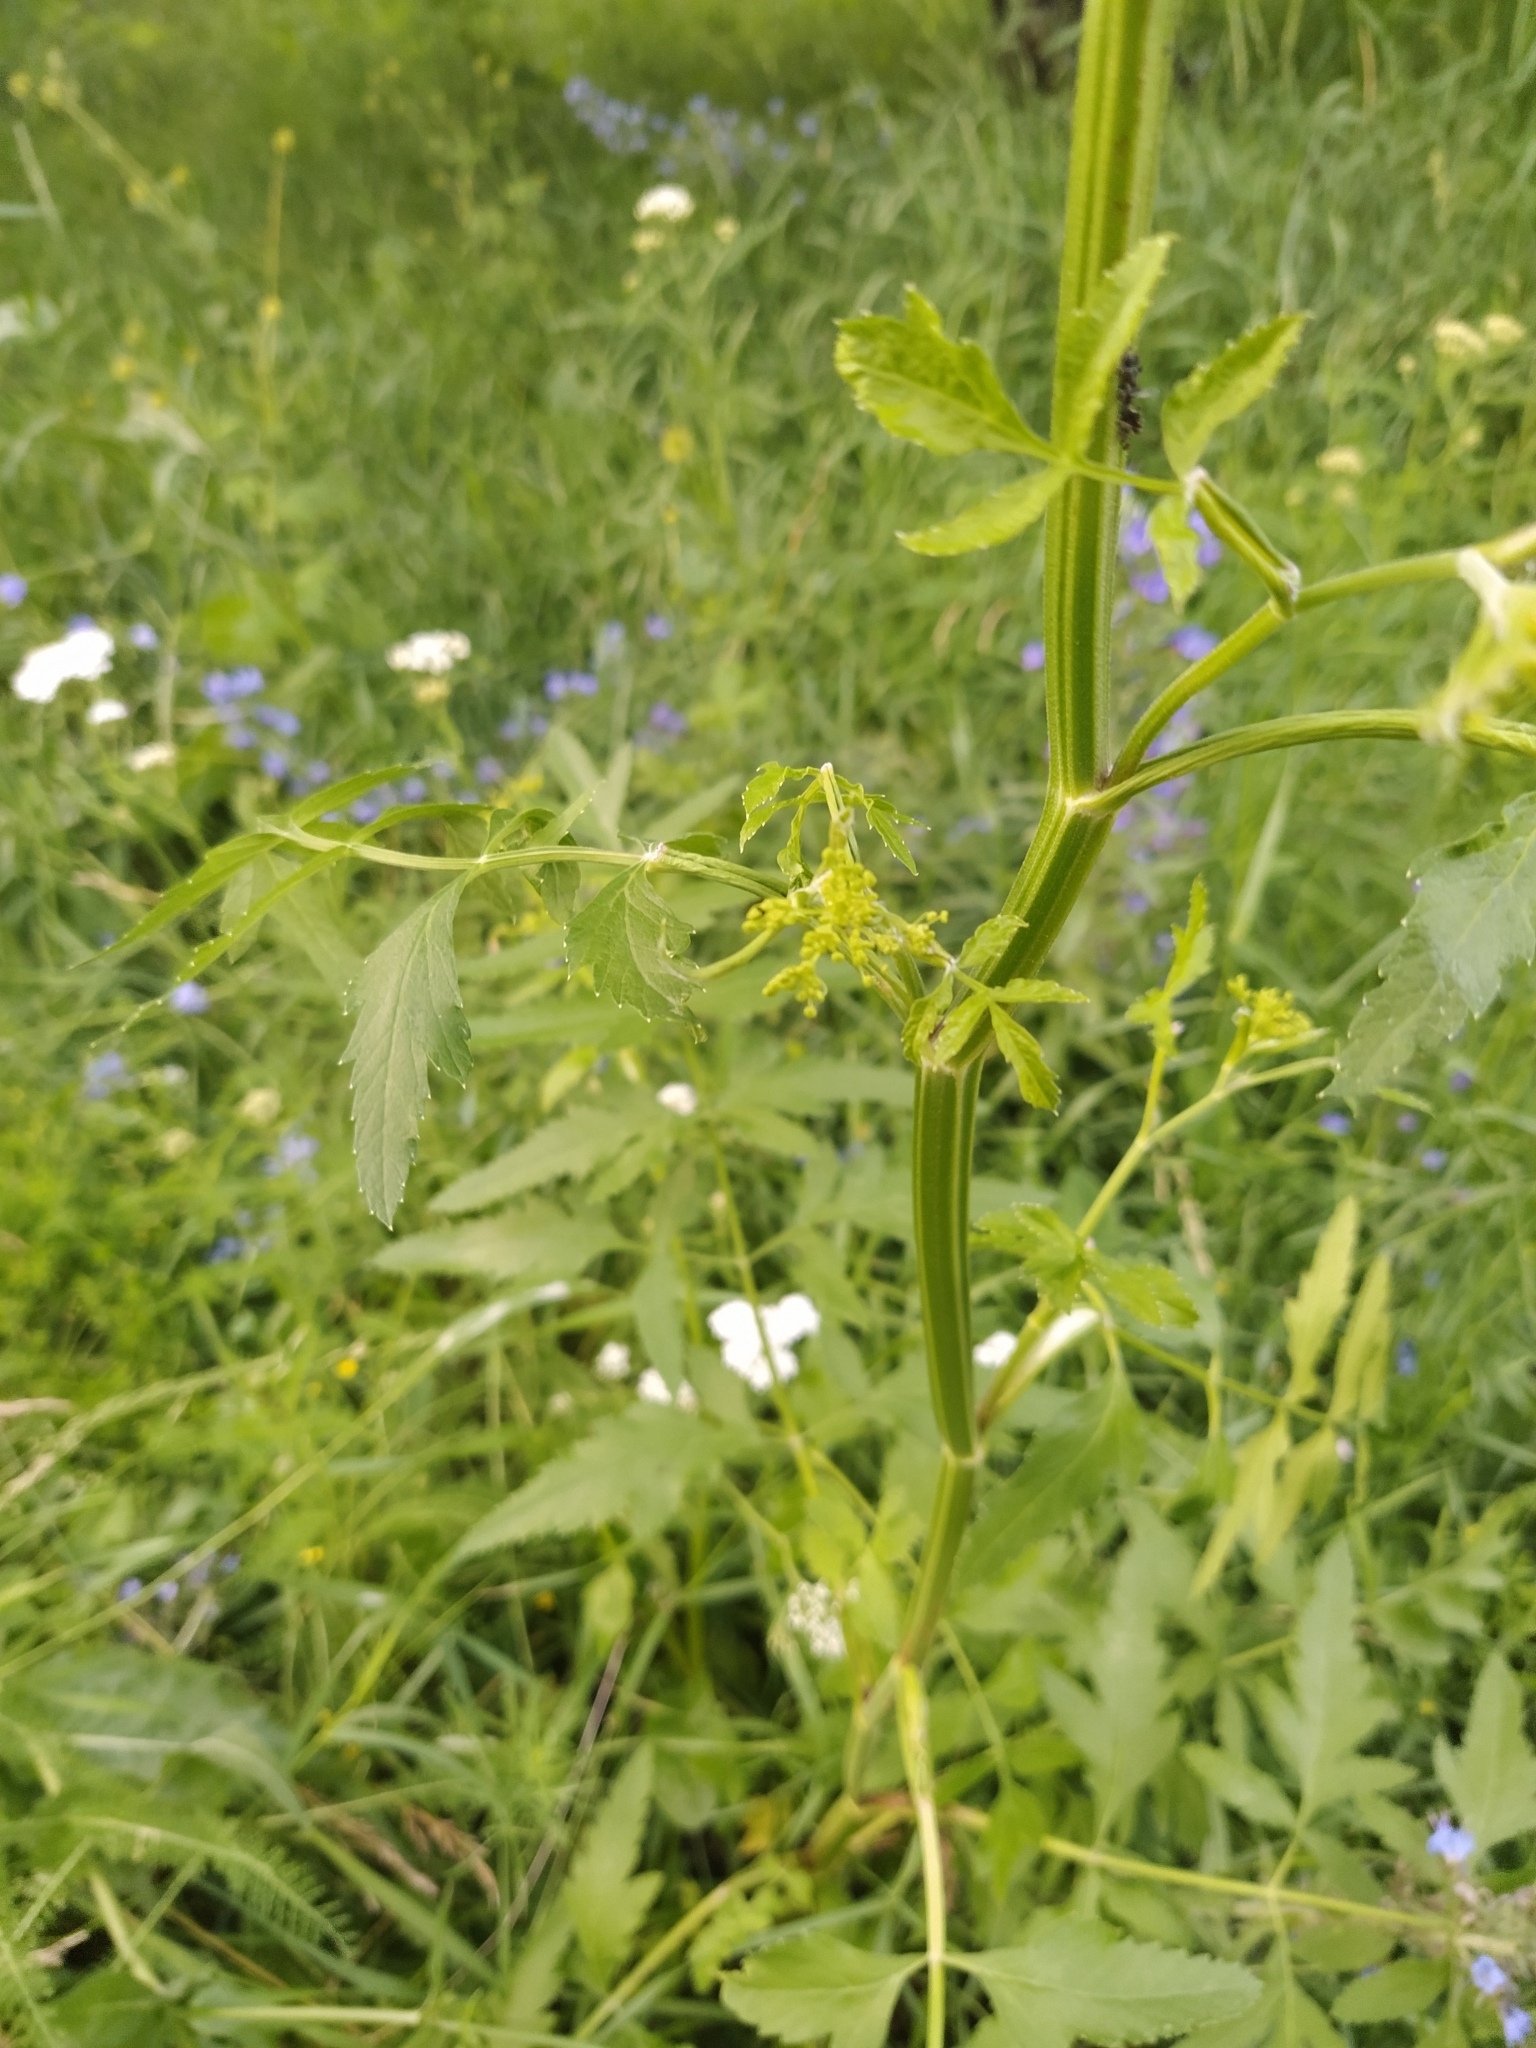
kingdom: Plantae
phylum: Tracheophyta
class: Magnoliopsida
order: Apiales
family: Apiaceae
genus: Pastinaca
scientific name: Pastinaca sativa
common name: Wild parsnip
